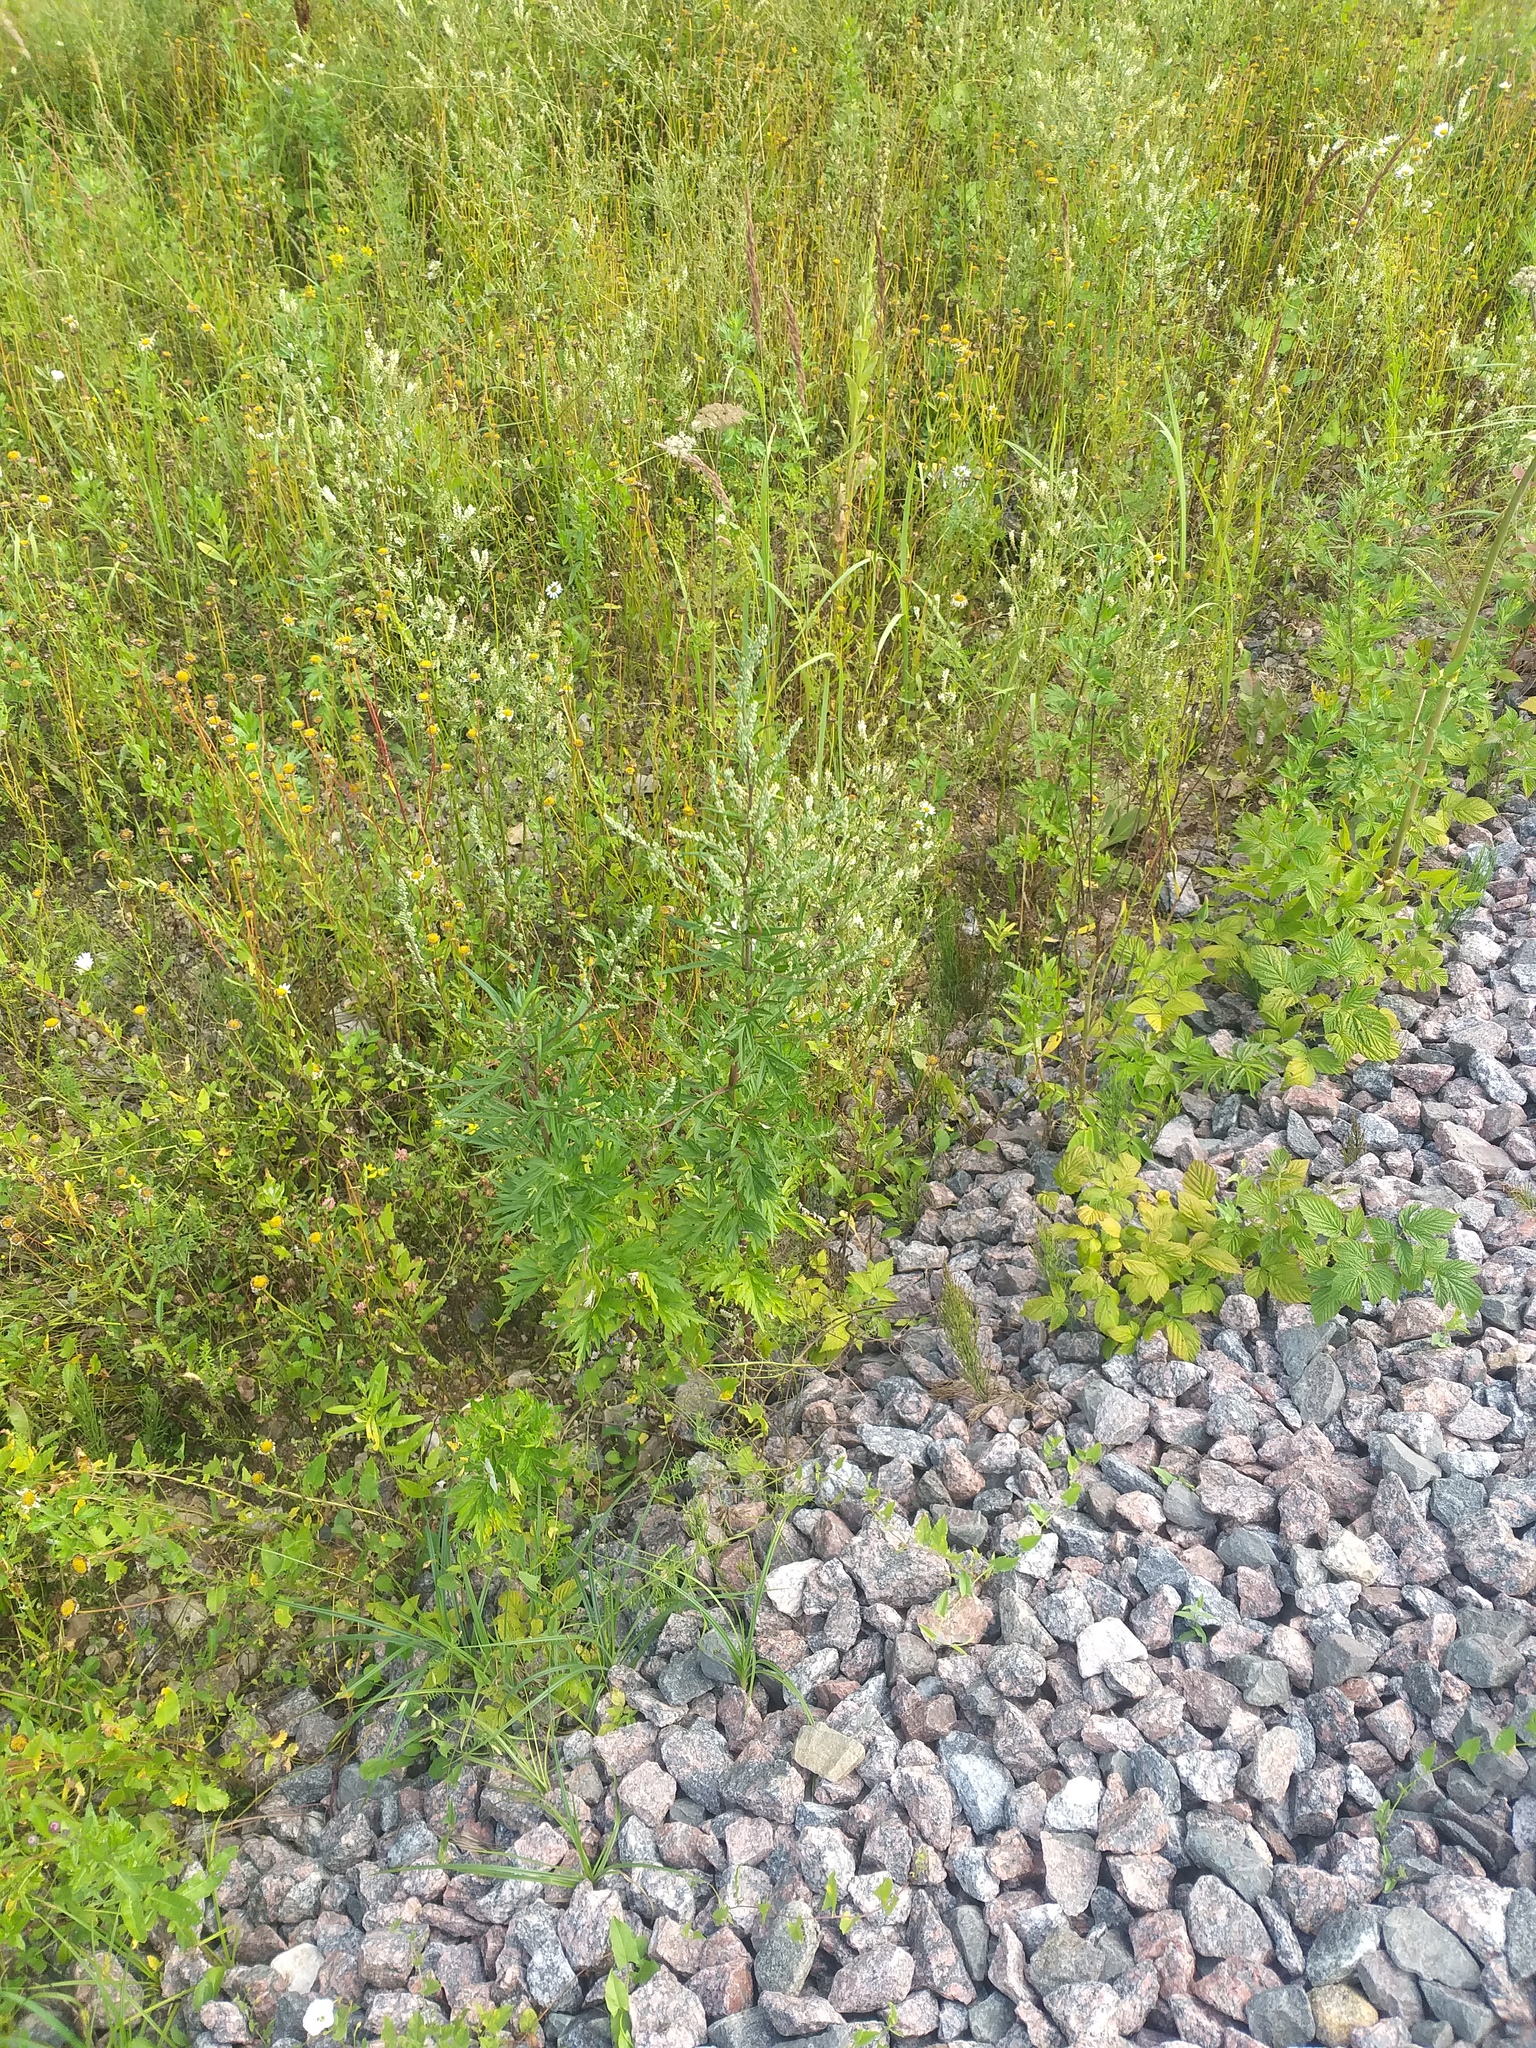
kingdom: Plantae
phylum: Tracheophyta
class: Magnoliopsida
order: Asterales
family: Asteraceae
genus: Artemisia
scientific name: Artemisia vulgaris
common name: Mugwort
